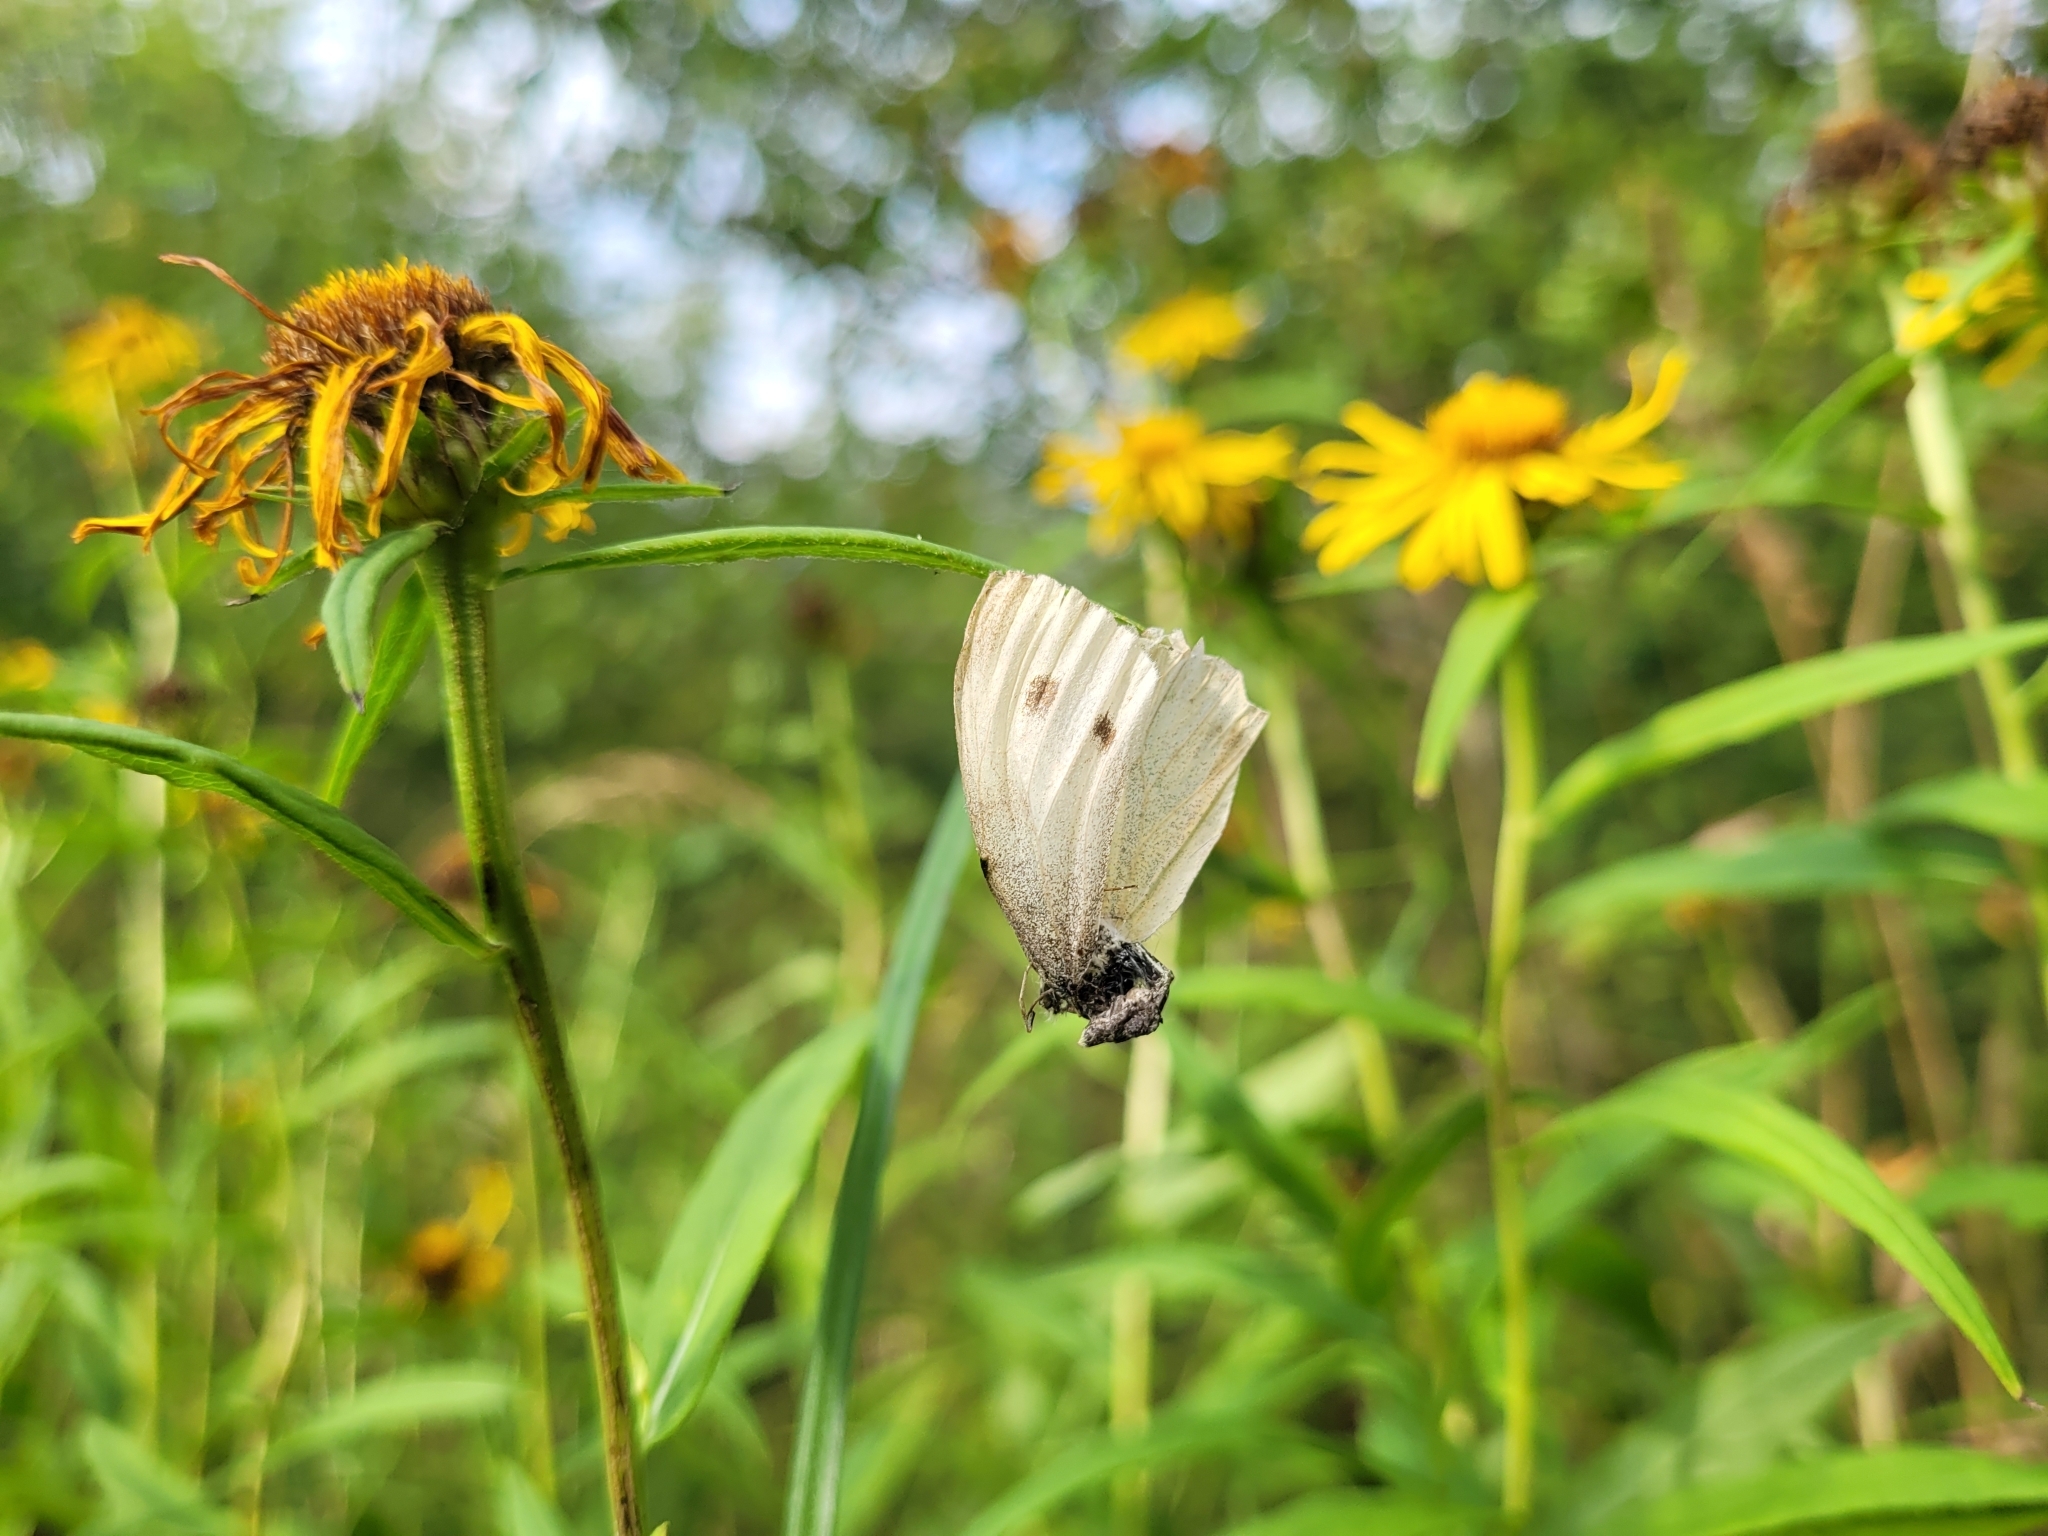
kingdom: Animalia
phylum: Arthropoda
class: Insecta
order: Lepidoptera
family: Pieridae
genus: Pieris
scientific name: Pieris rapae
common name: Small white
